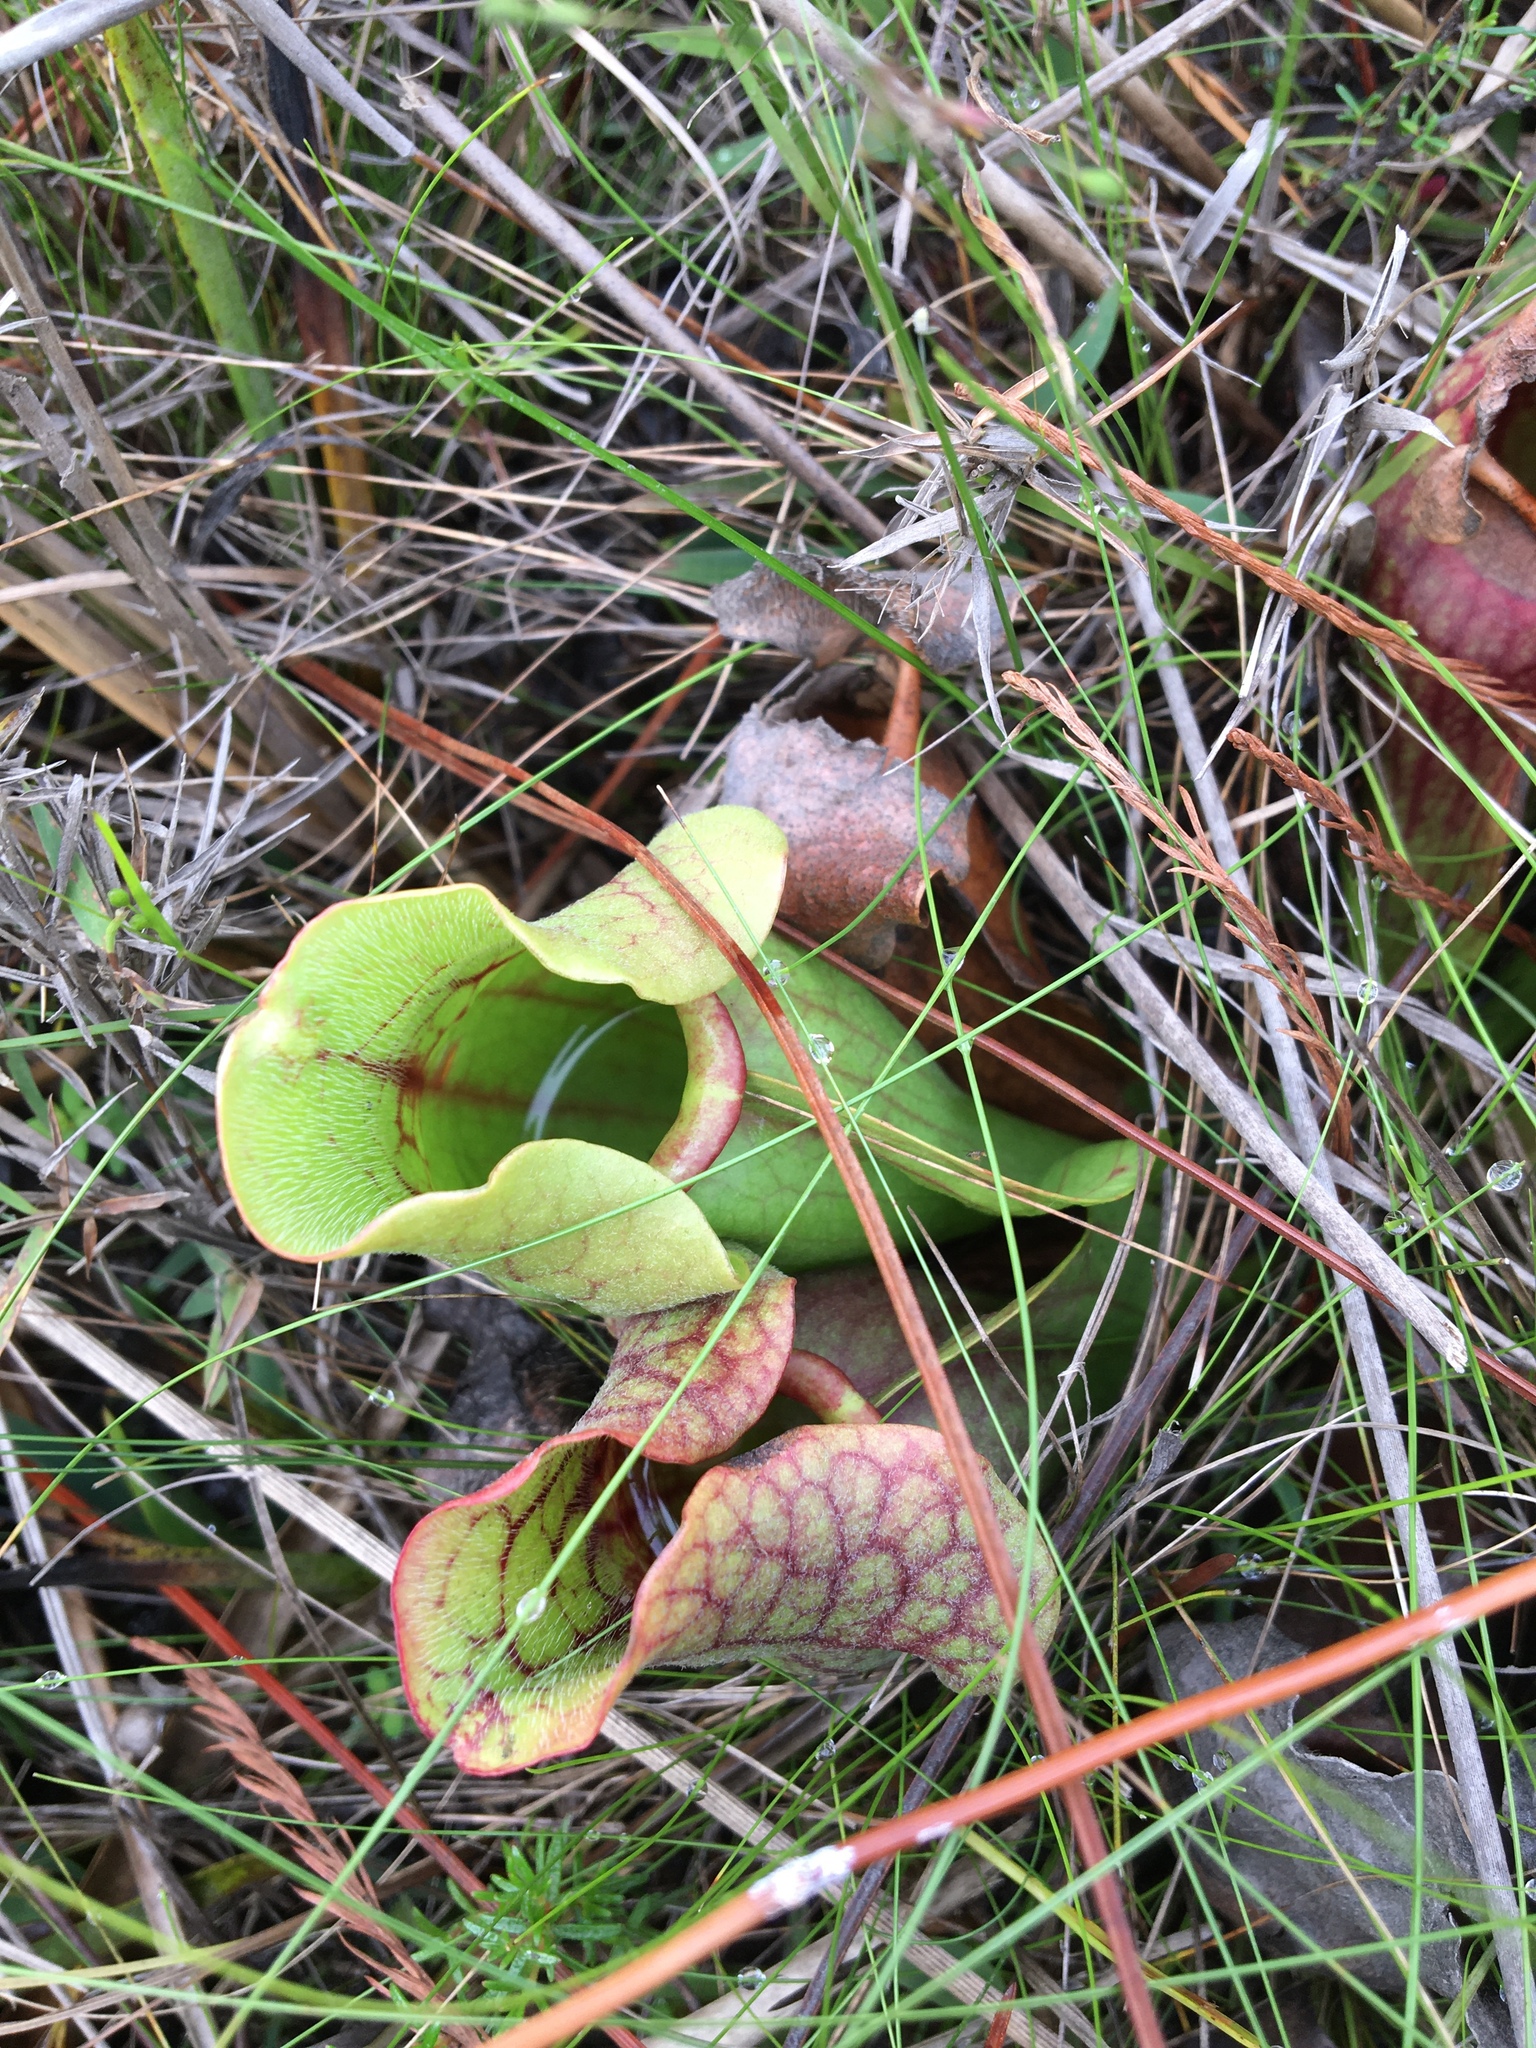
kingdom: Plantae
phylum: Tracheophyta
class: Magnoliopsida
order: Ericales
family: Sarraceniaceae
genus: Sarracenia
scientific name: Sarracenia rosea
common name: Pink pitcherplant
